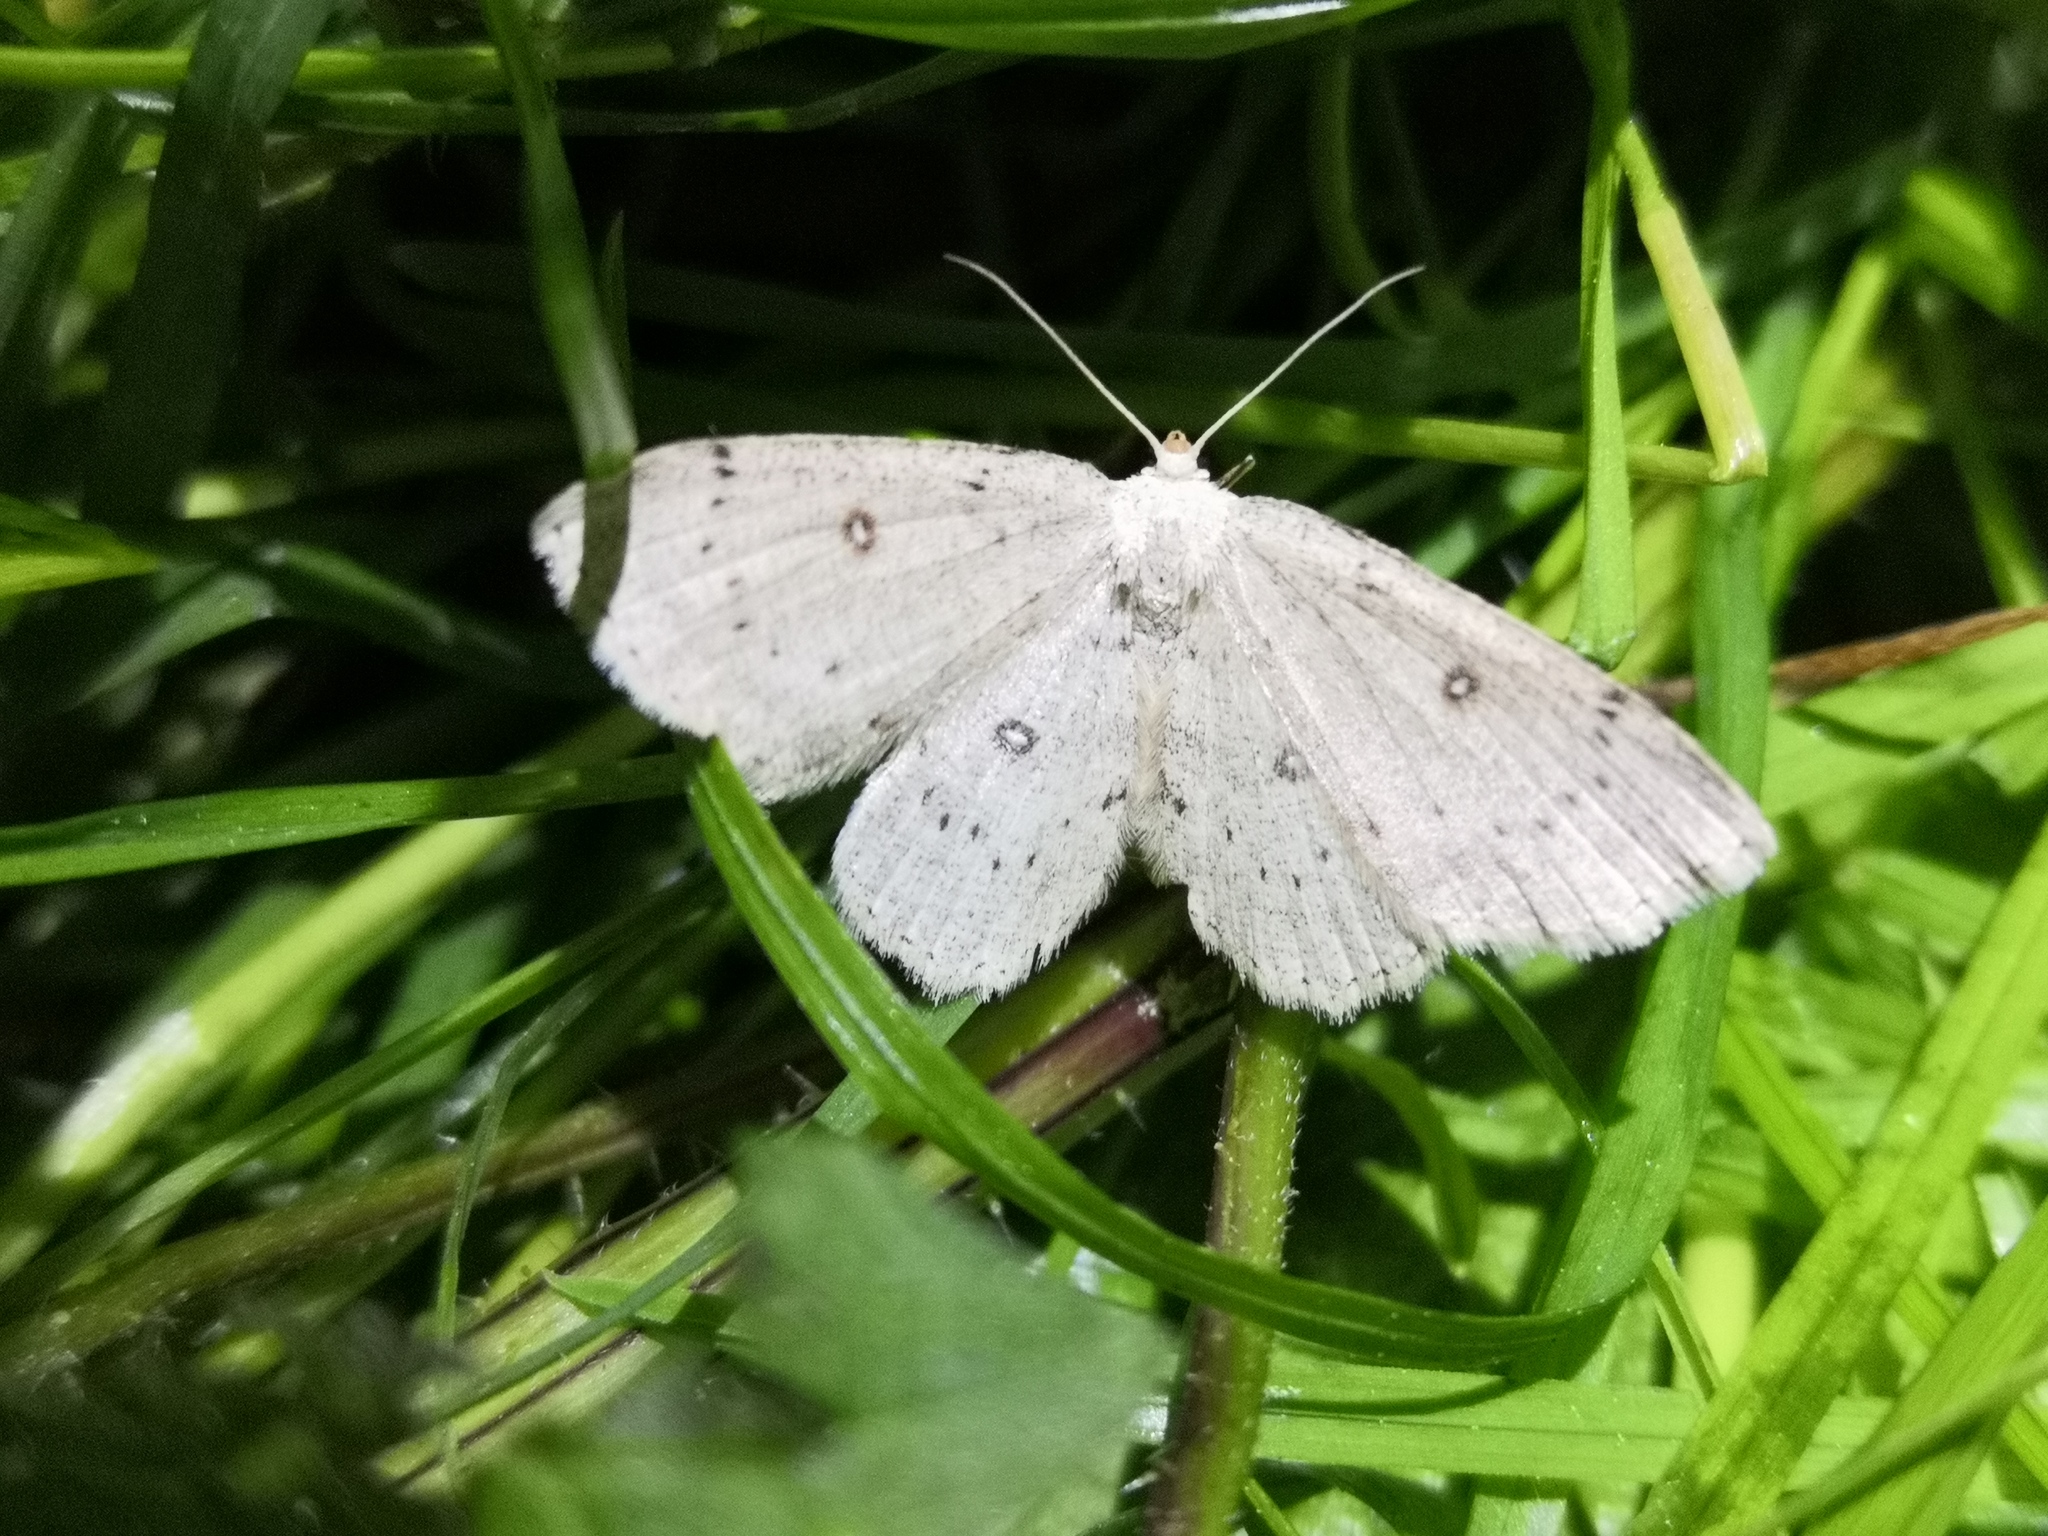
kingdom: Animalia
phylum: Arthropoda
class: Insecta
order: Lepidoptera
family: Geometridae
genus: Cyclophora
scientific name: Cyclophora albipunctata
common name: Birch mocha
